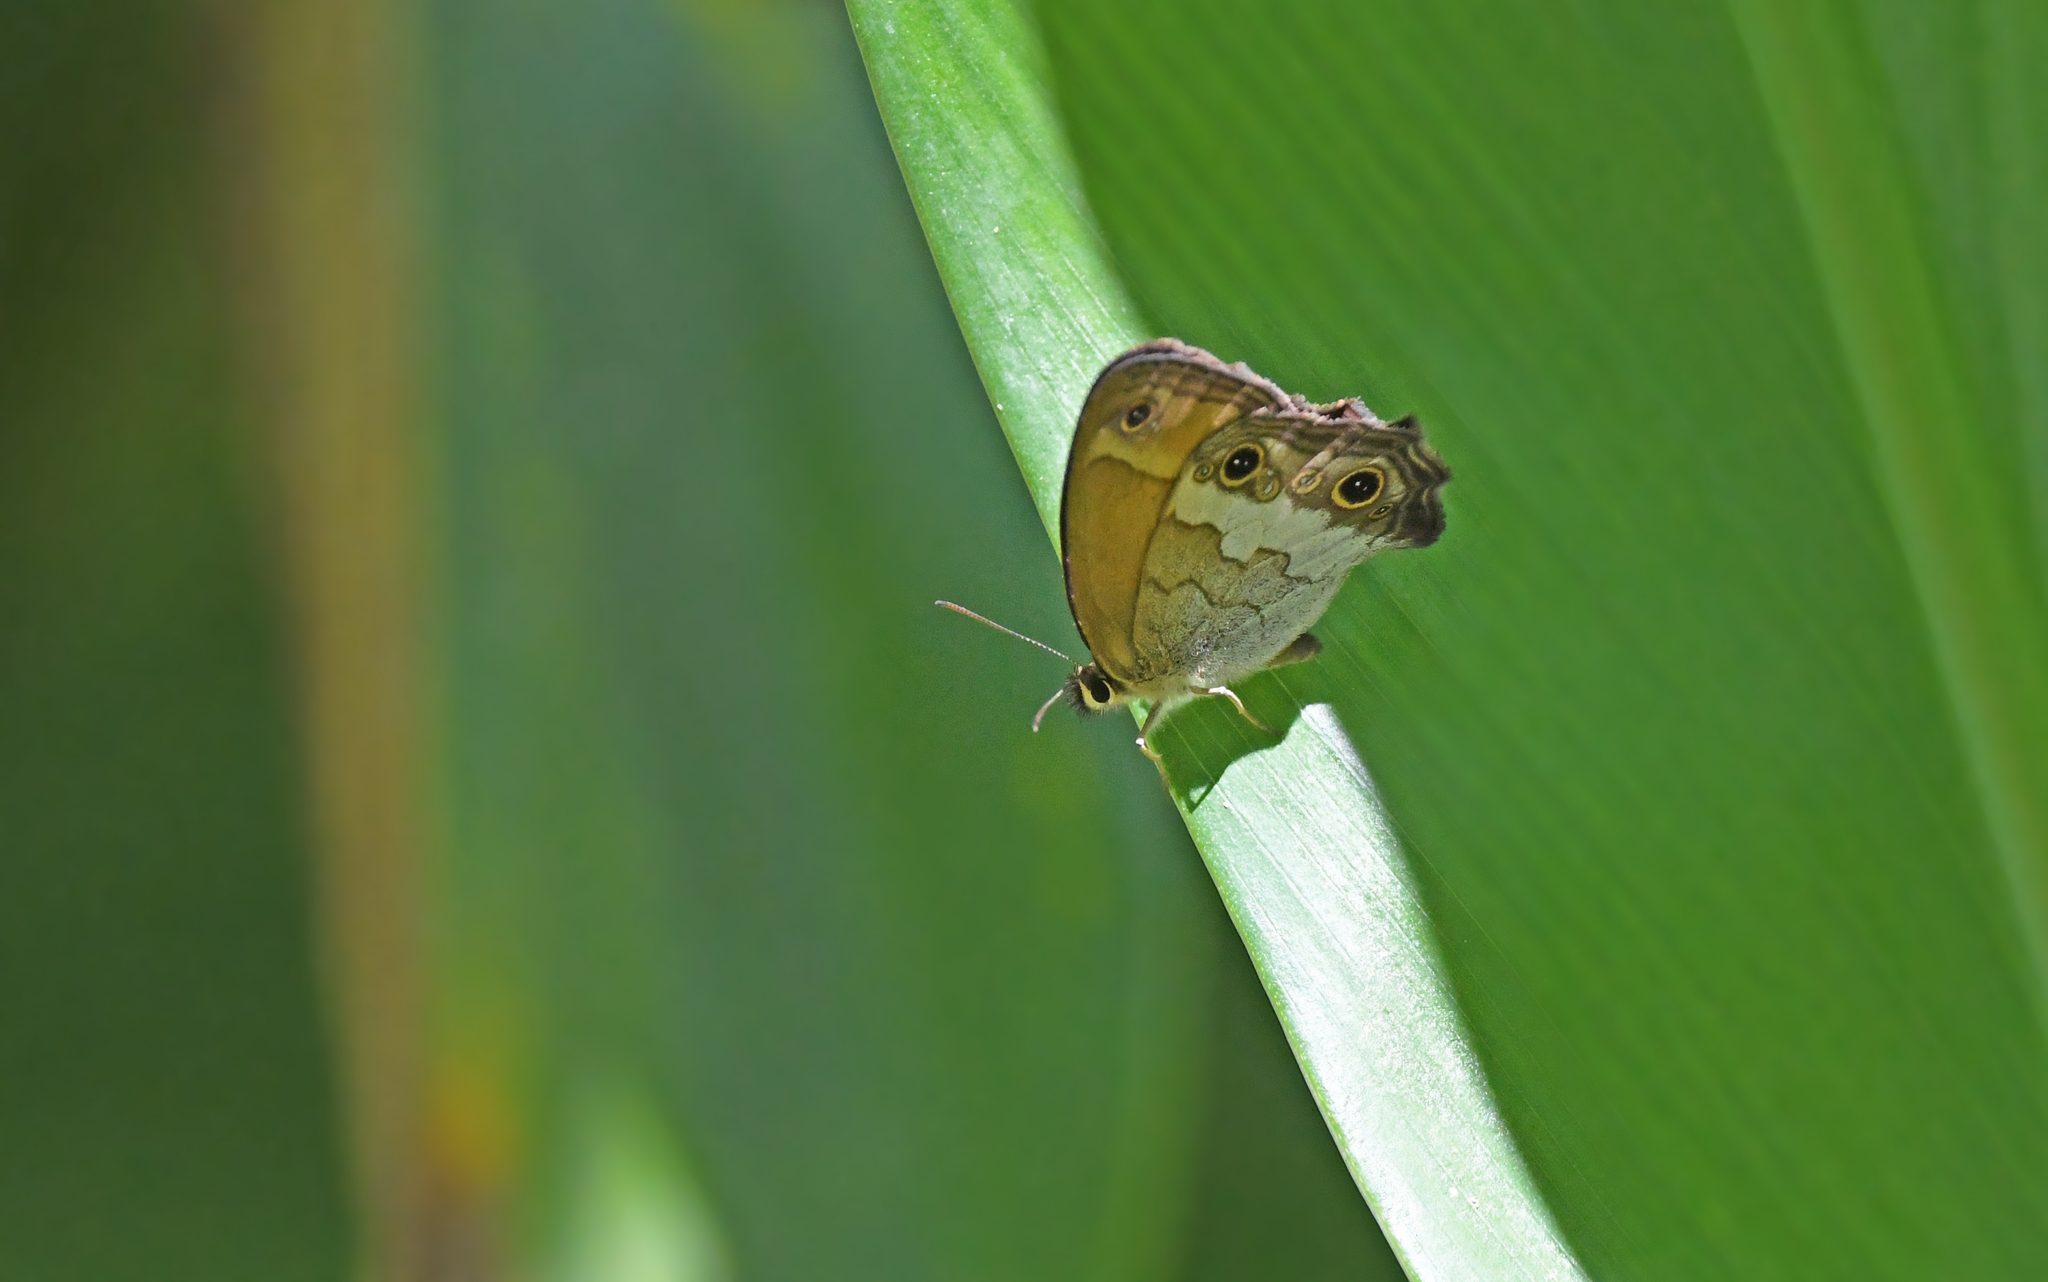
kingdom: Animalia
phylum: Arthropoda
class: Insecta
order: Lepidoptera
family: Nymphalidae
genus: Graphita
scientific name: Graphita griphe
